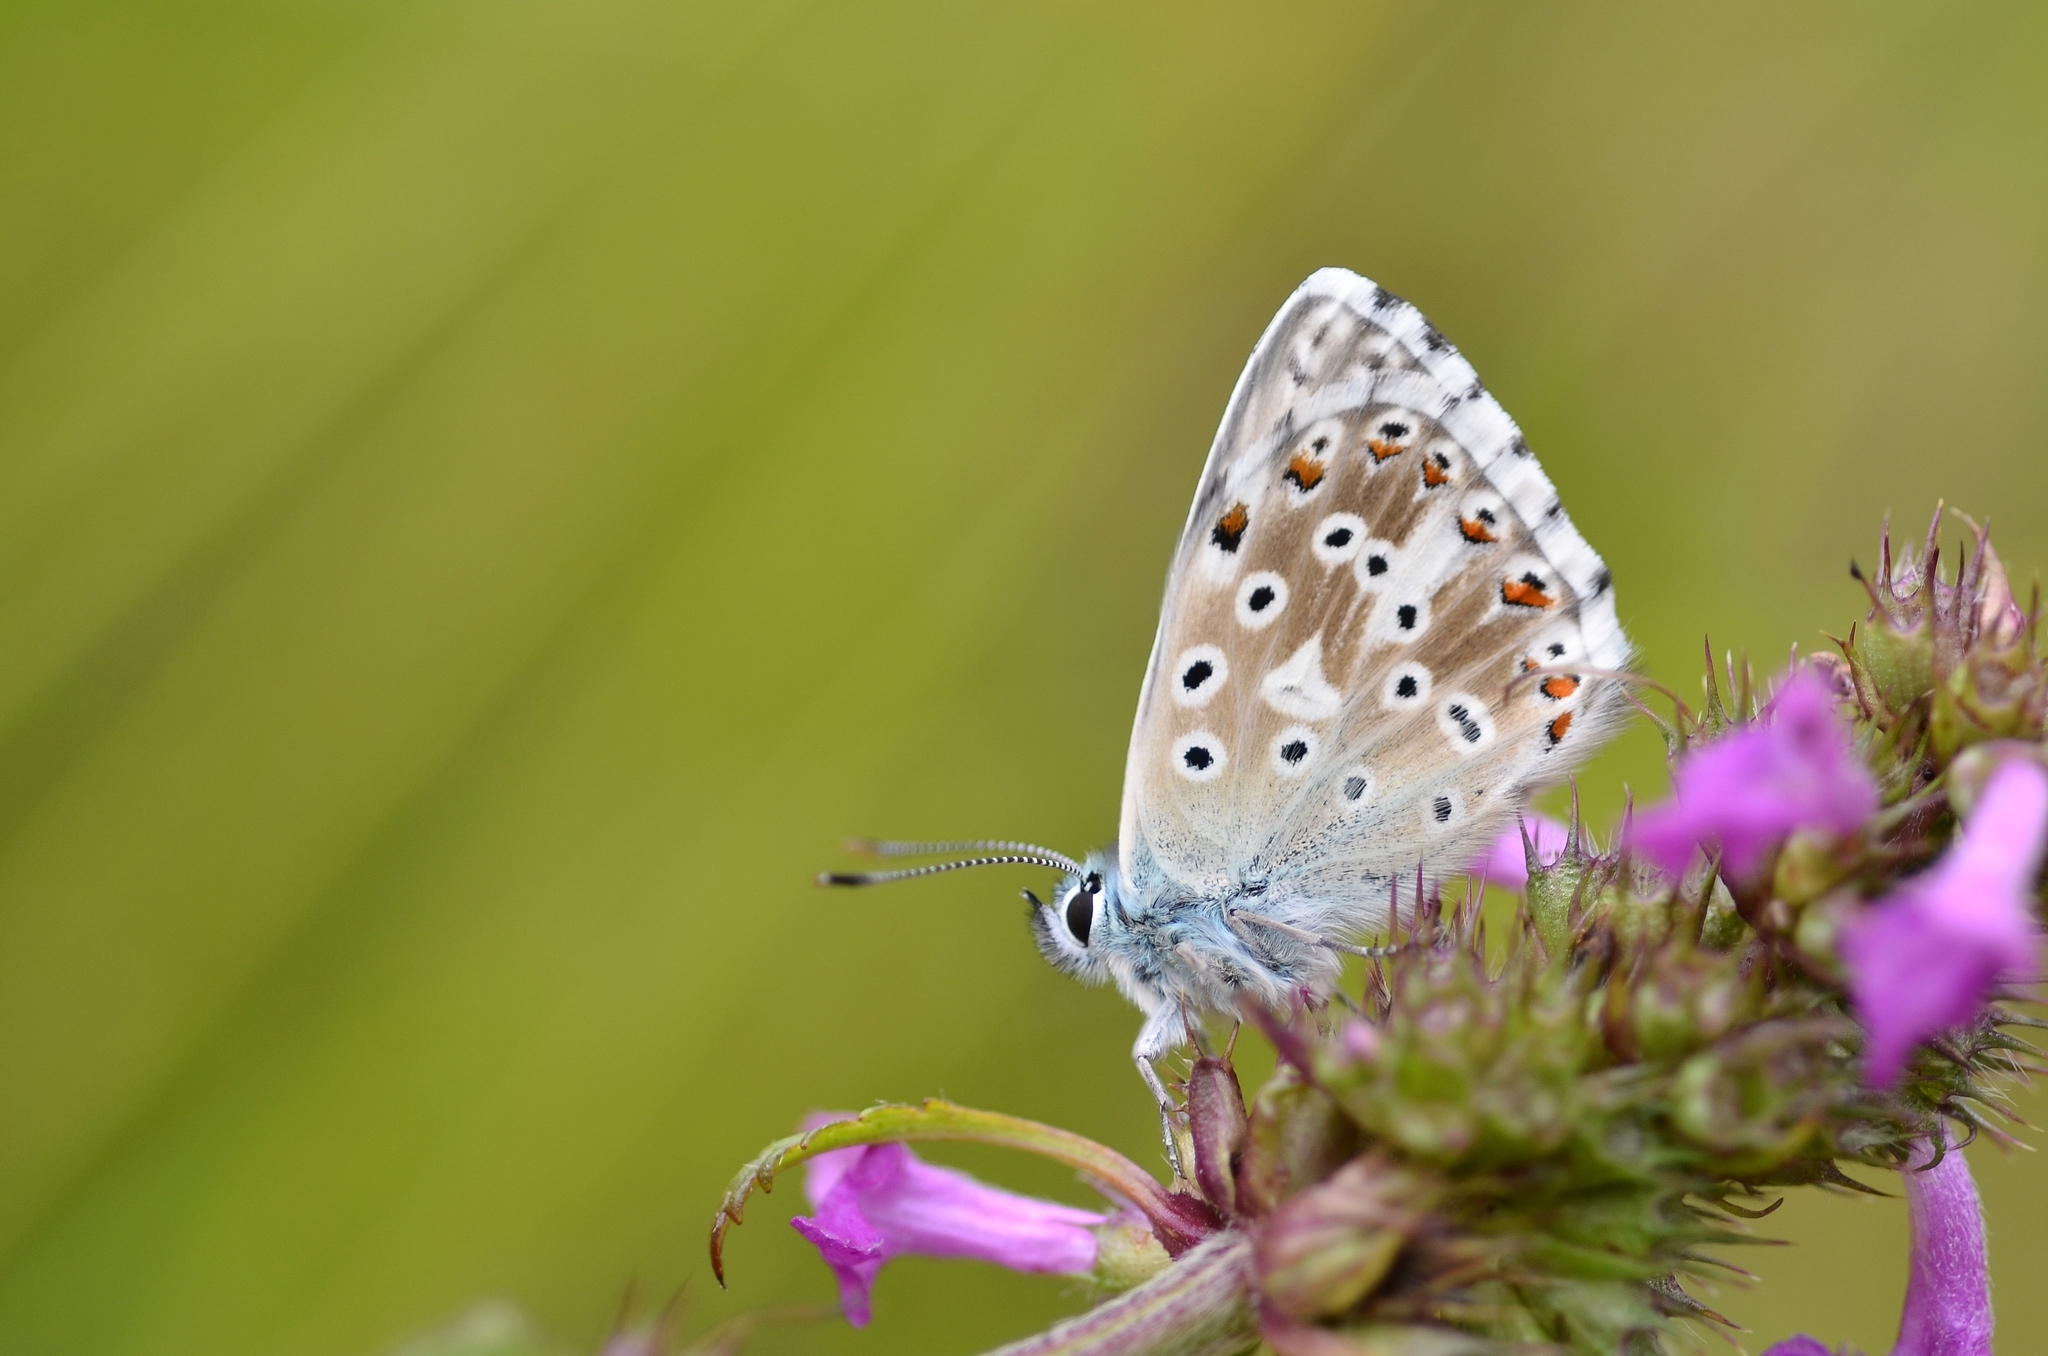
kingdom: Animalia
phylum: Arthropoda
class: Insecta
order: Lepidoptera
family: Lycaenidae
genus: Lysandra
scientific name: Lysandra coridon
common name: Chalkhill blue
